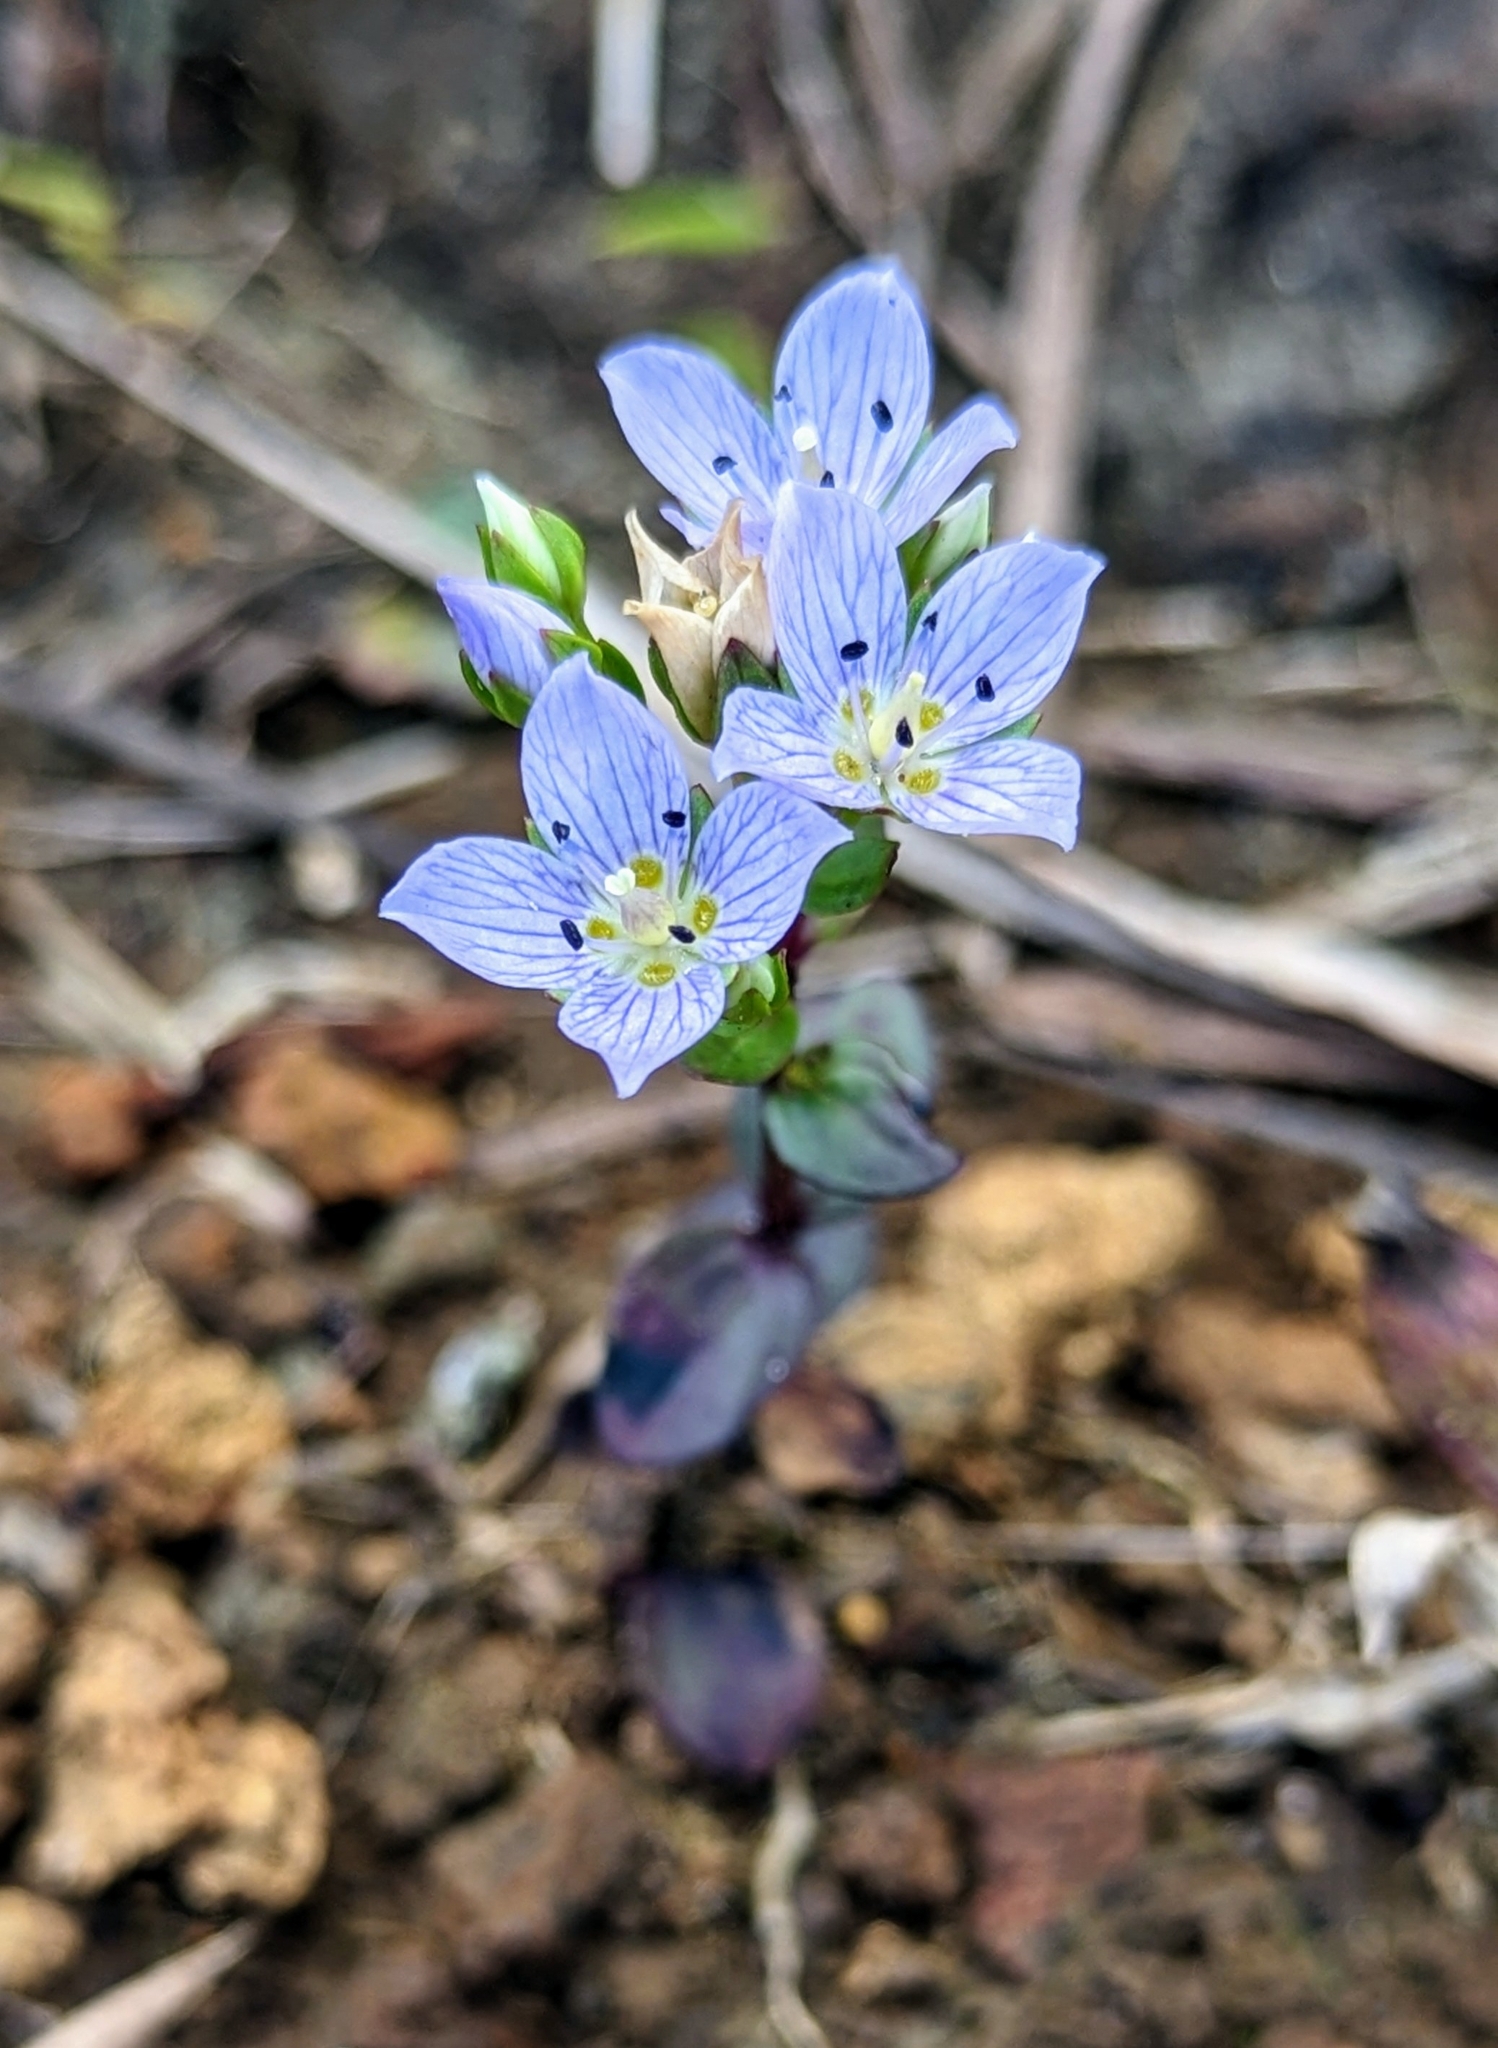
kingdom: Plantae
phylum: Tracheophyta
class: Magnoliopsida
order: Gentianales
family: Gentianaceae
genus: Swertia
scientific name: Swertia lawii
